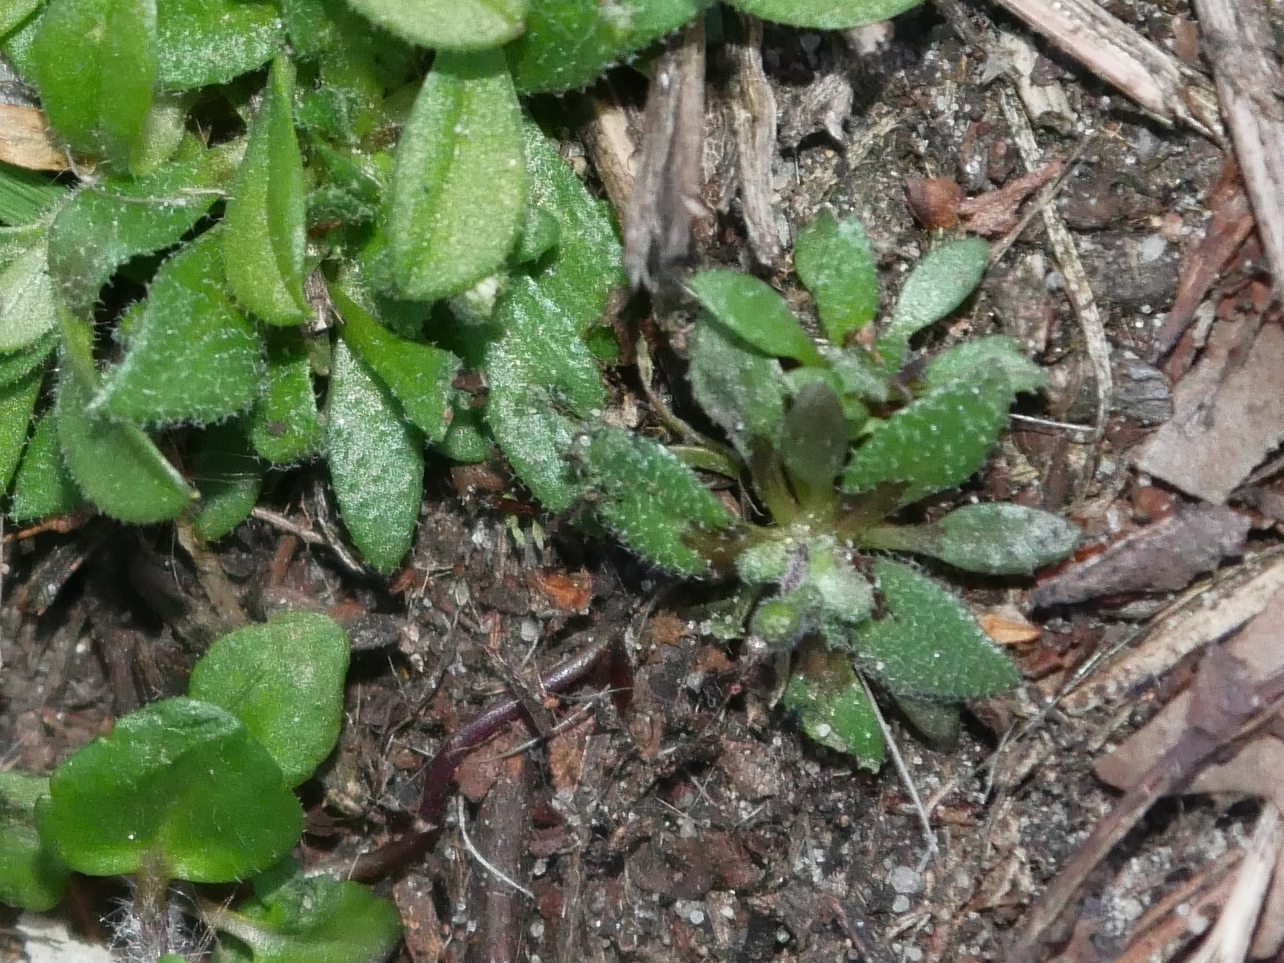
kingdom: Plantae
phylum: Tracheophyta
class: Magnoliopsida
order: Brassicales
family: Brassicaceae
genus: Draba
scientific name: Draba verna
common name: Spring draba
